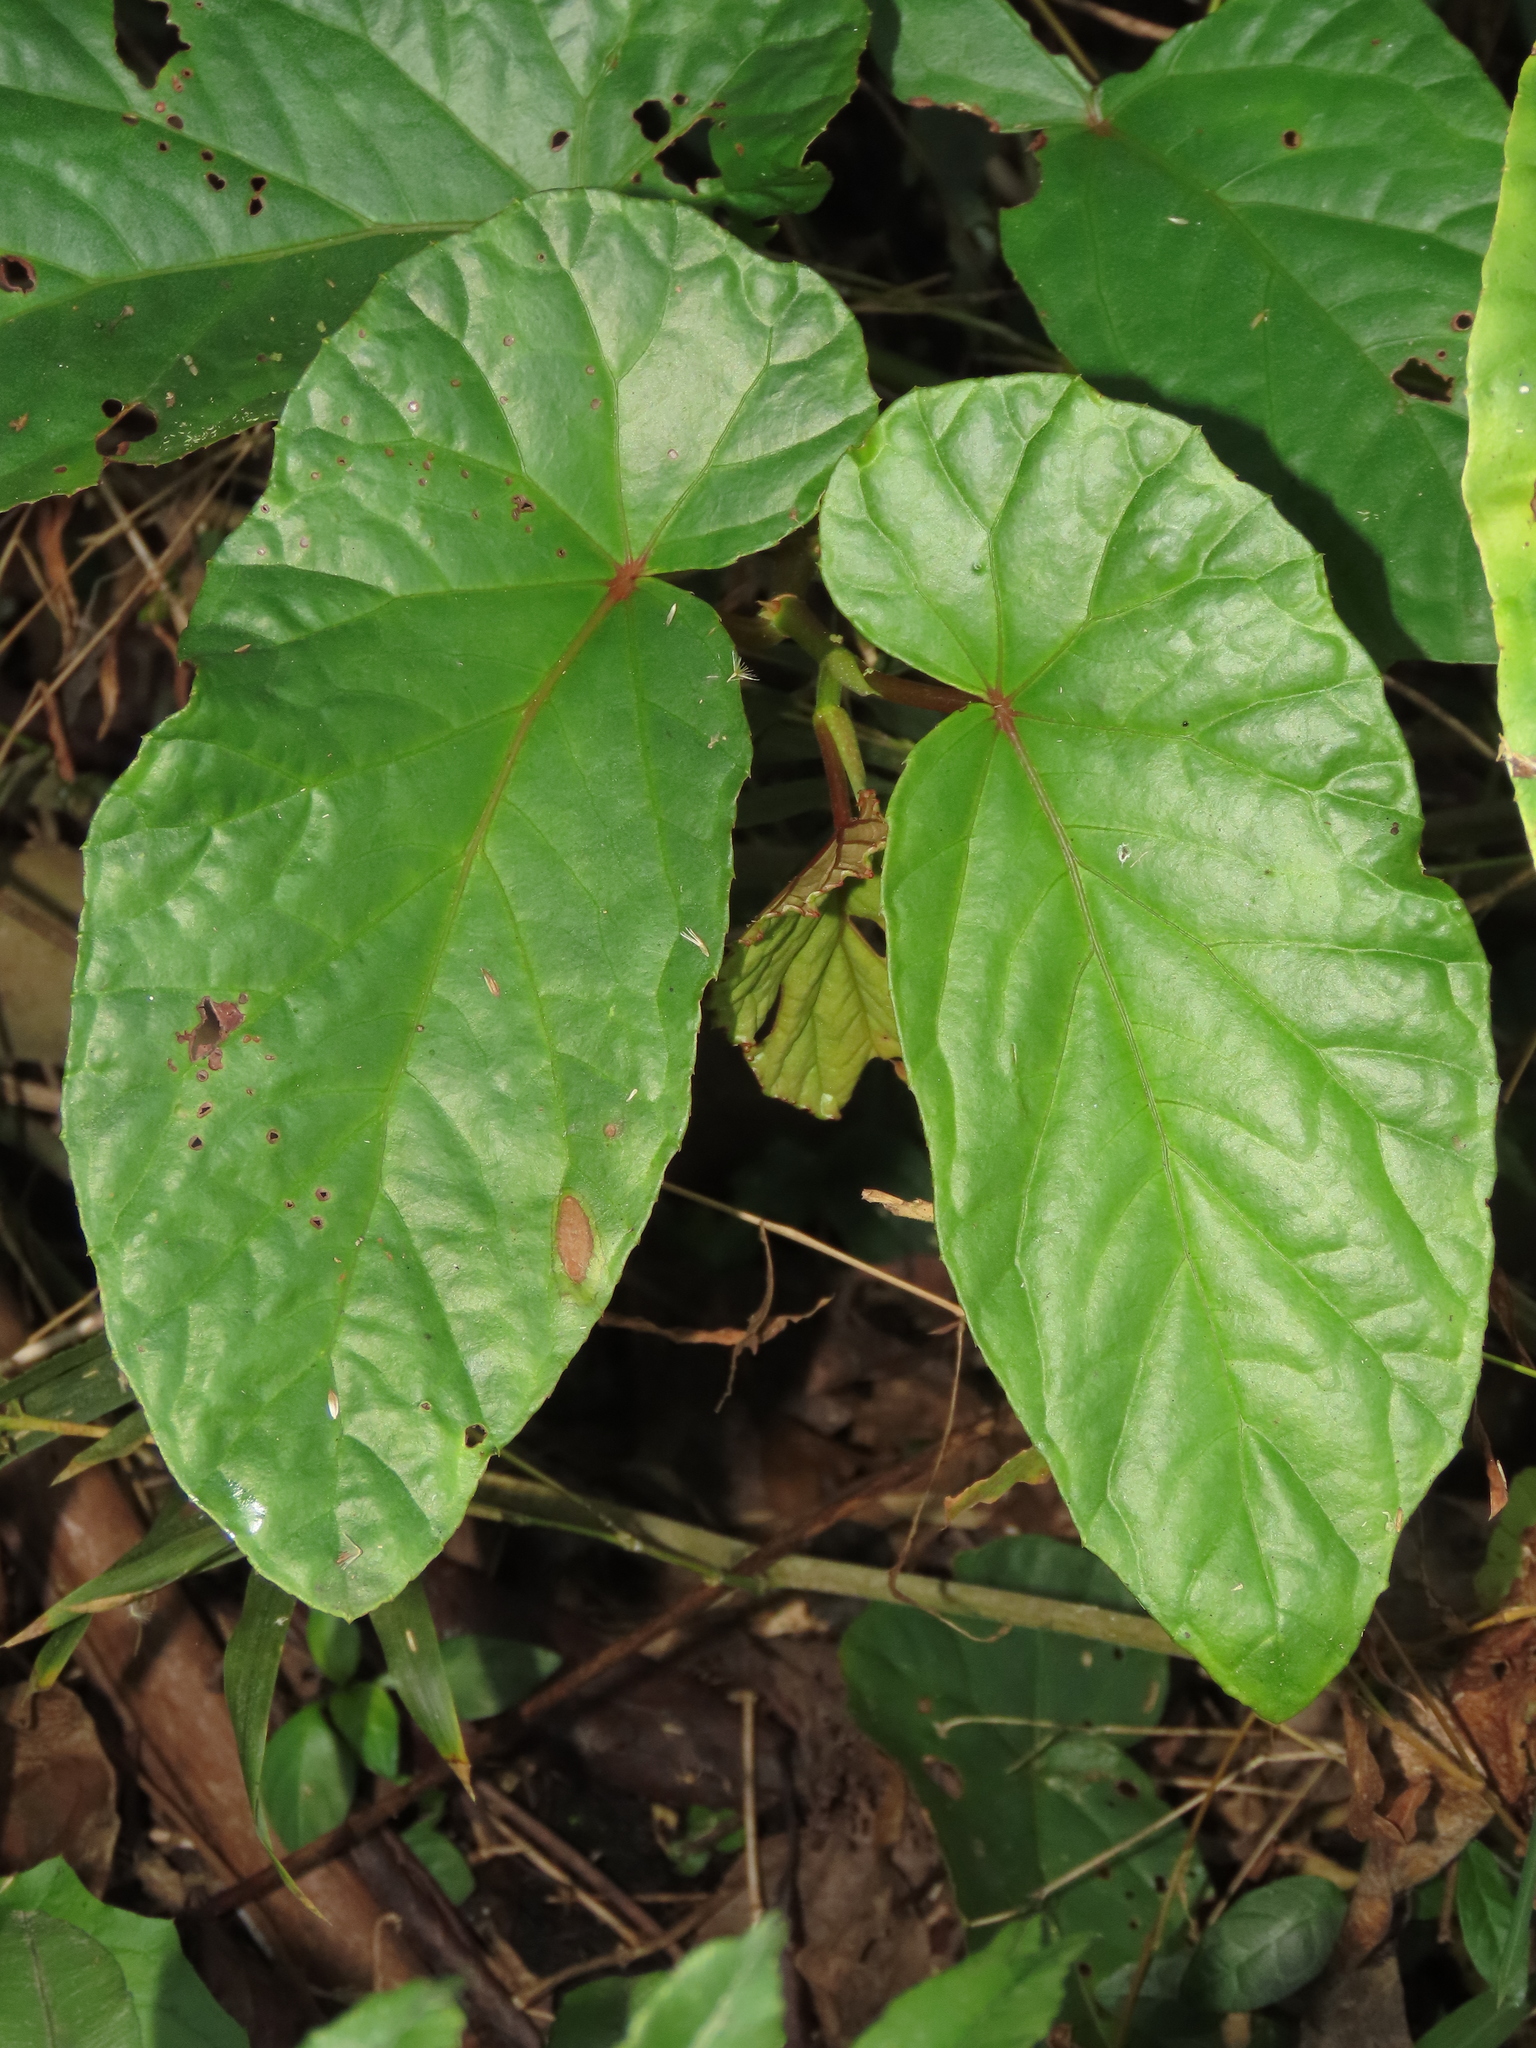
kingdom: Plantae
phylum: Tracheophyta
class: Magnoliopsida
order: Cucurbitales
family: Begoniaceae
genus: Begonia
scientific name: Begonia longifolia
